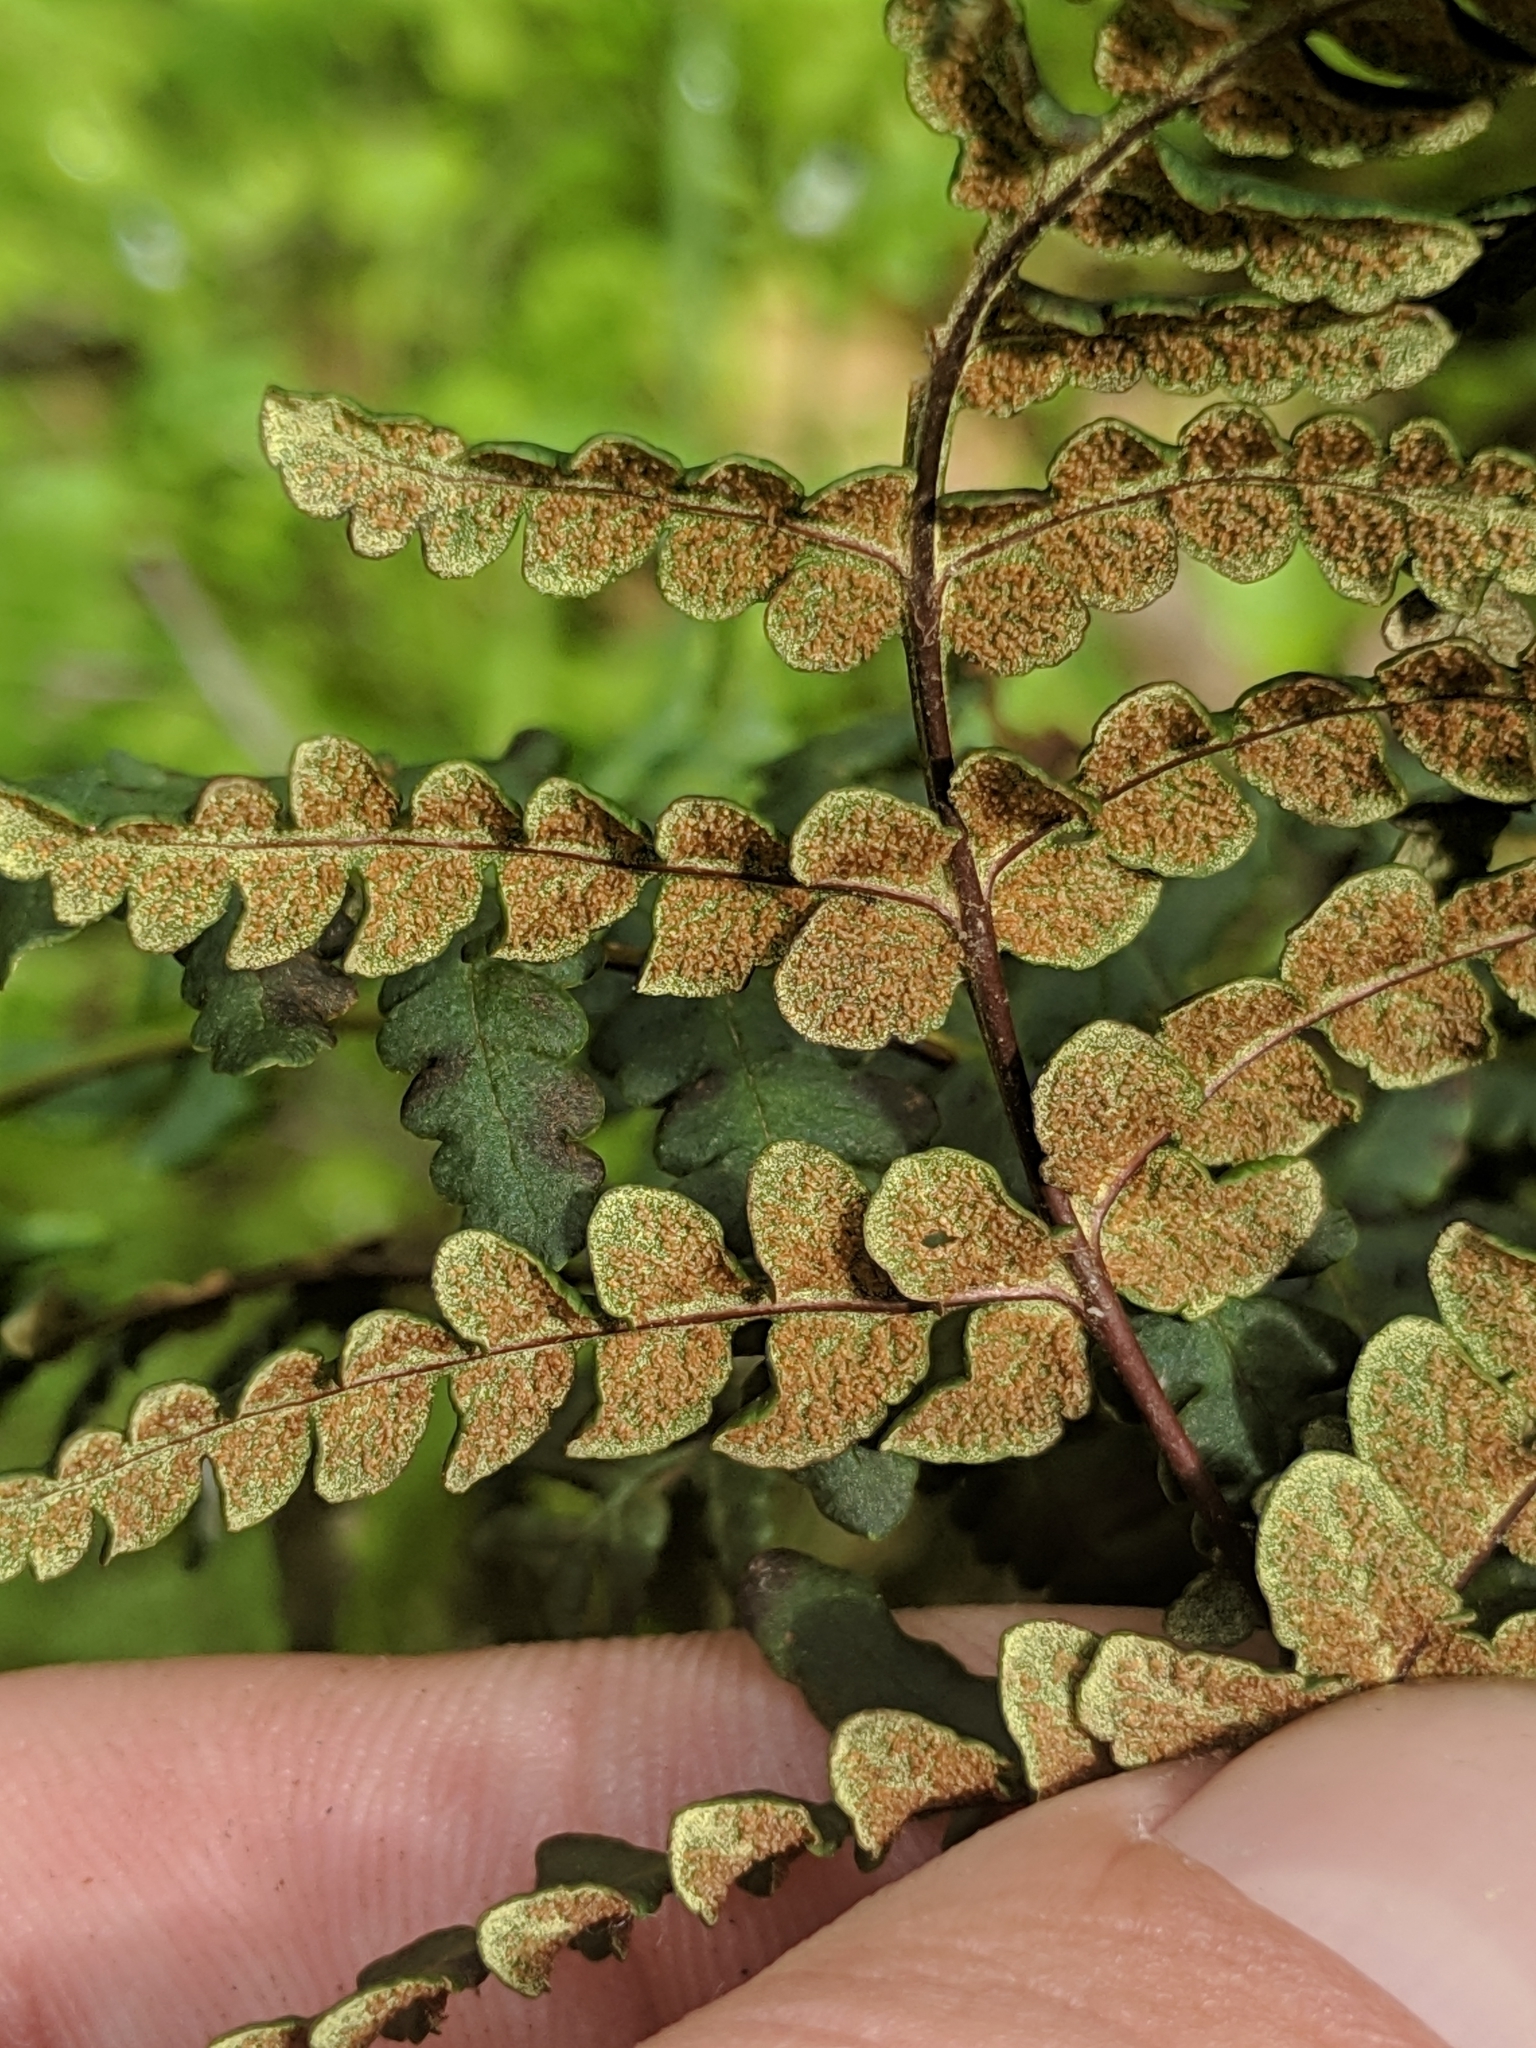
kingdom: Plantae
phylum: Tracheophyta
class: Polypodiopsida
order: Polypodiales
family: Pteridaceae
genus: Pentagramma
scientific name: Pentagramma triangularis
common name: Gold fern
